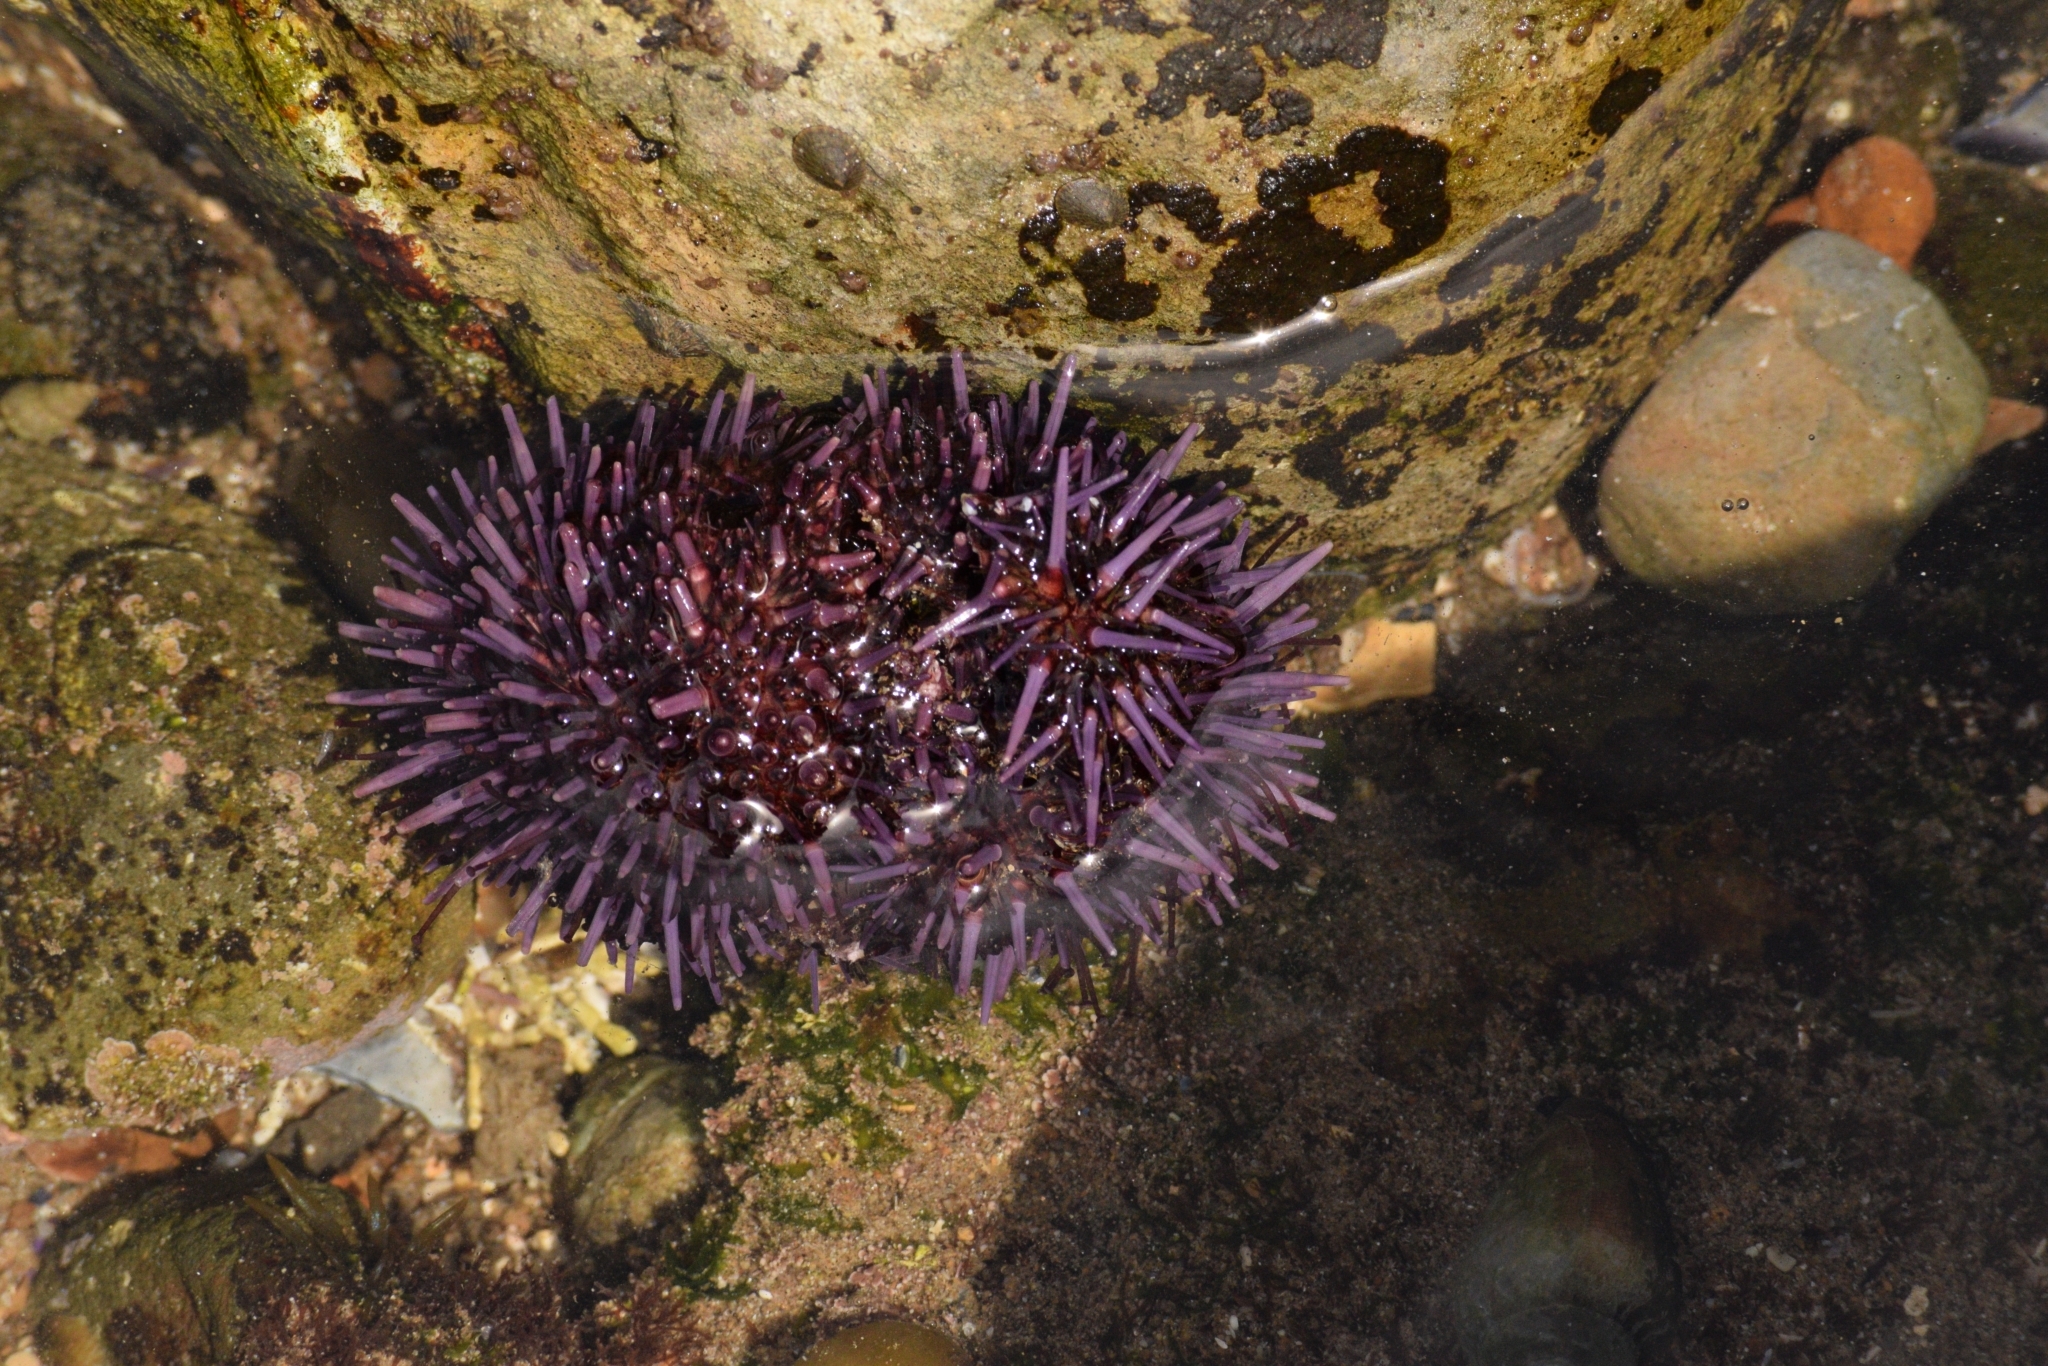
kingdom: Animalia
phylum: Echinodermata
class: Echinoidea
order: Camarodonta
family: Strongylocentrotidae
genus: Strongylocentrotus
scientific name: Strongylocentrotus purpuratus
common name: Purple sea urchin
